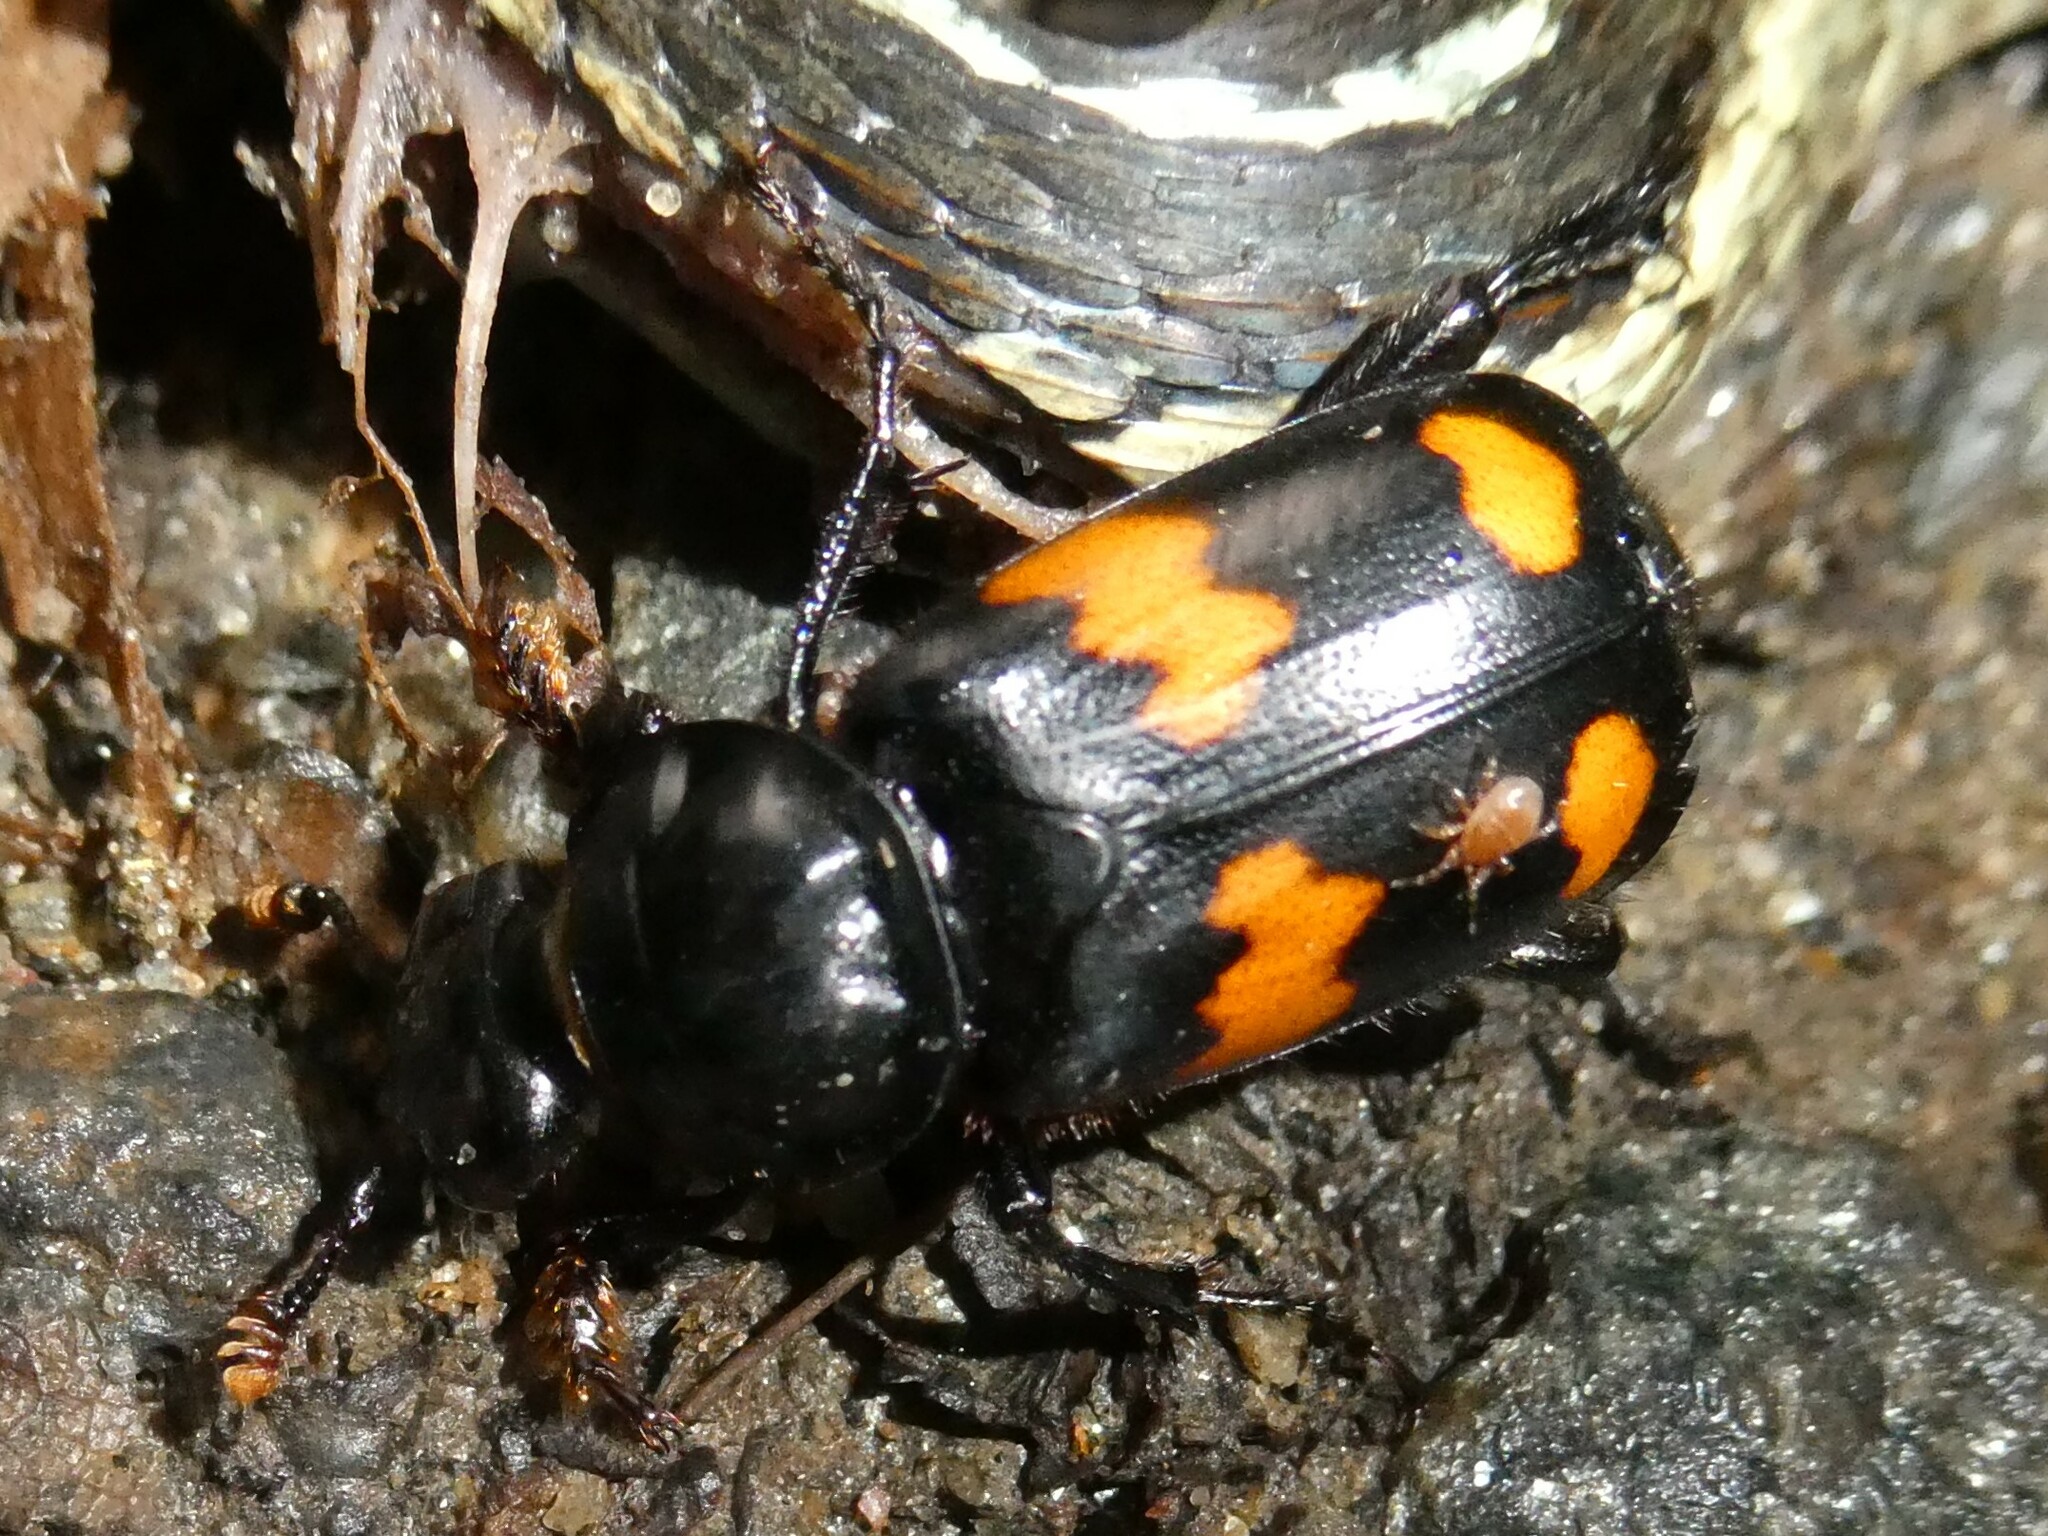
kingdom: Animalia
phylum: Arthropoda
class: Insecta
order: Coleoptera
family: Staphylinidae
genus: Nicrophorus
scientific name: Nicrophorus orbicollis
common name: Roundneck sexton beetle
